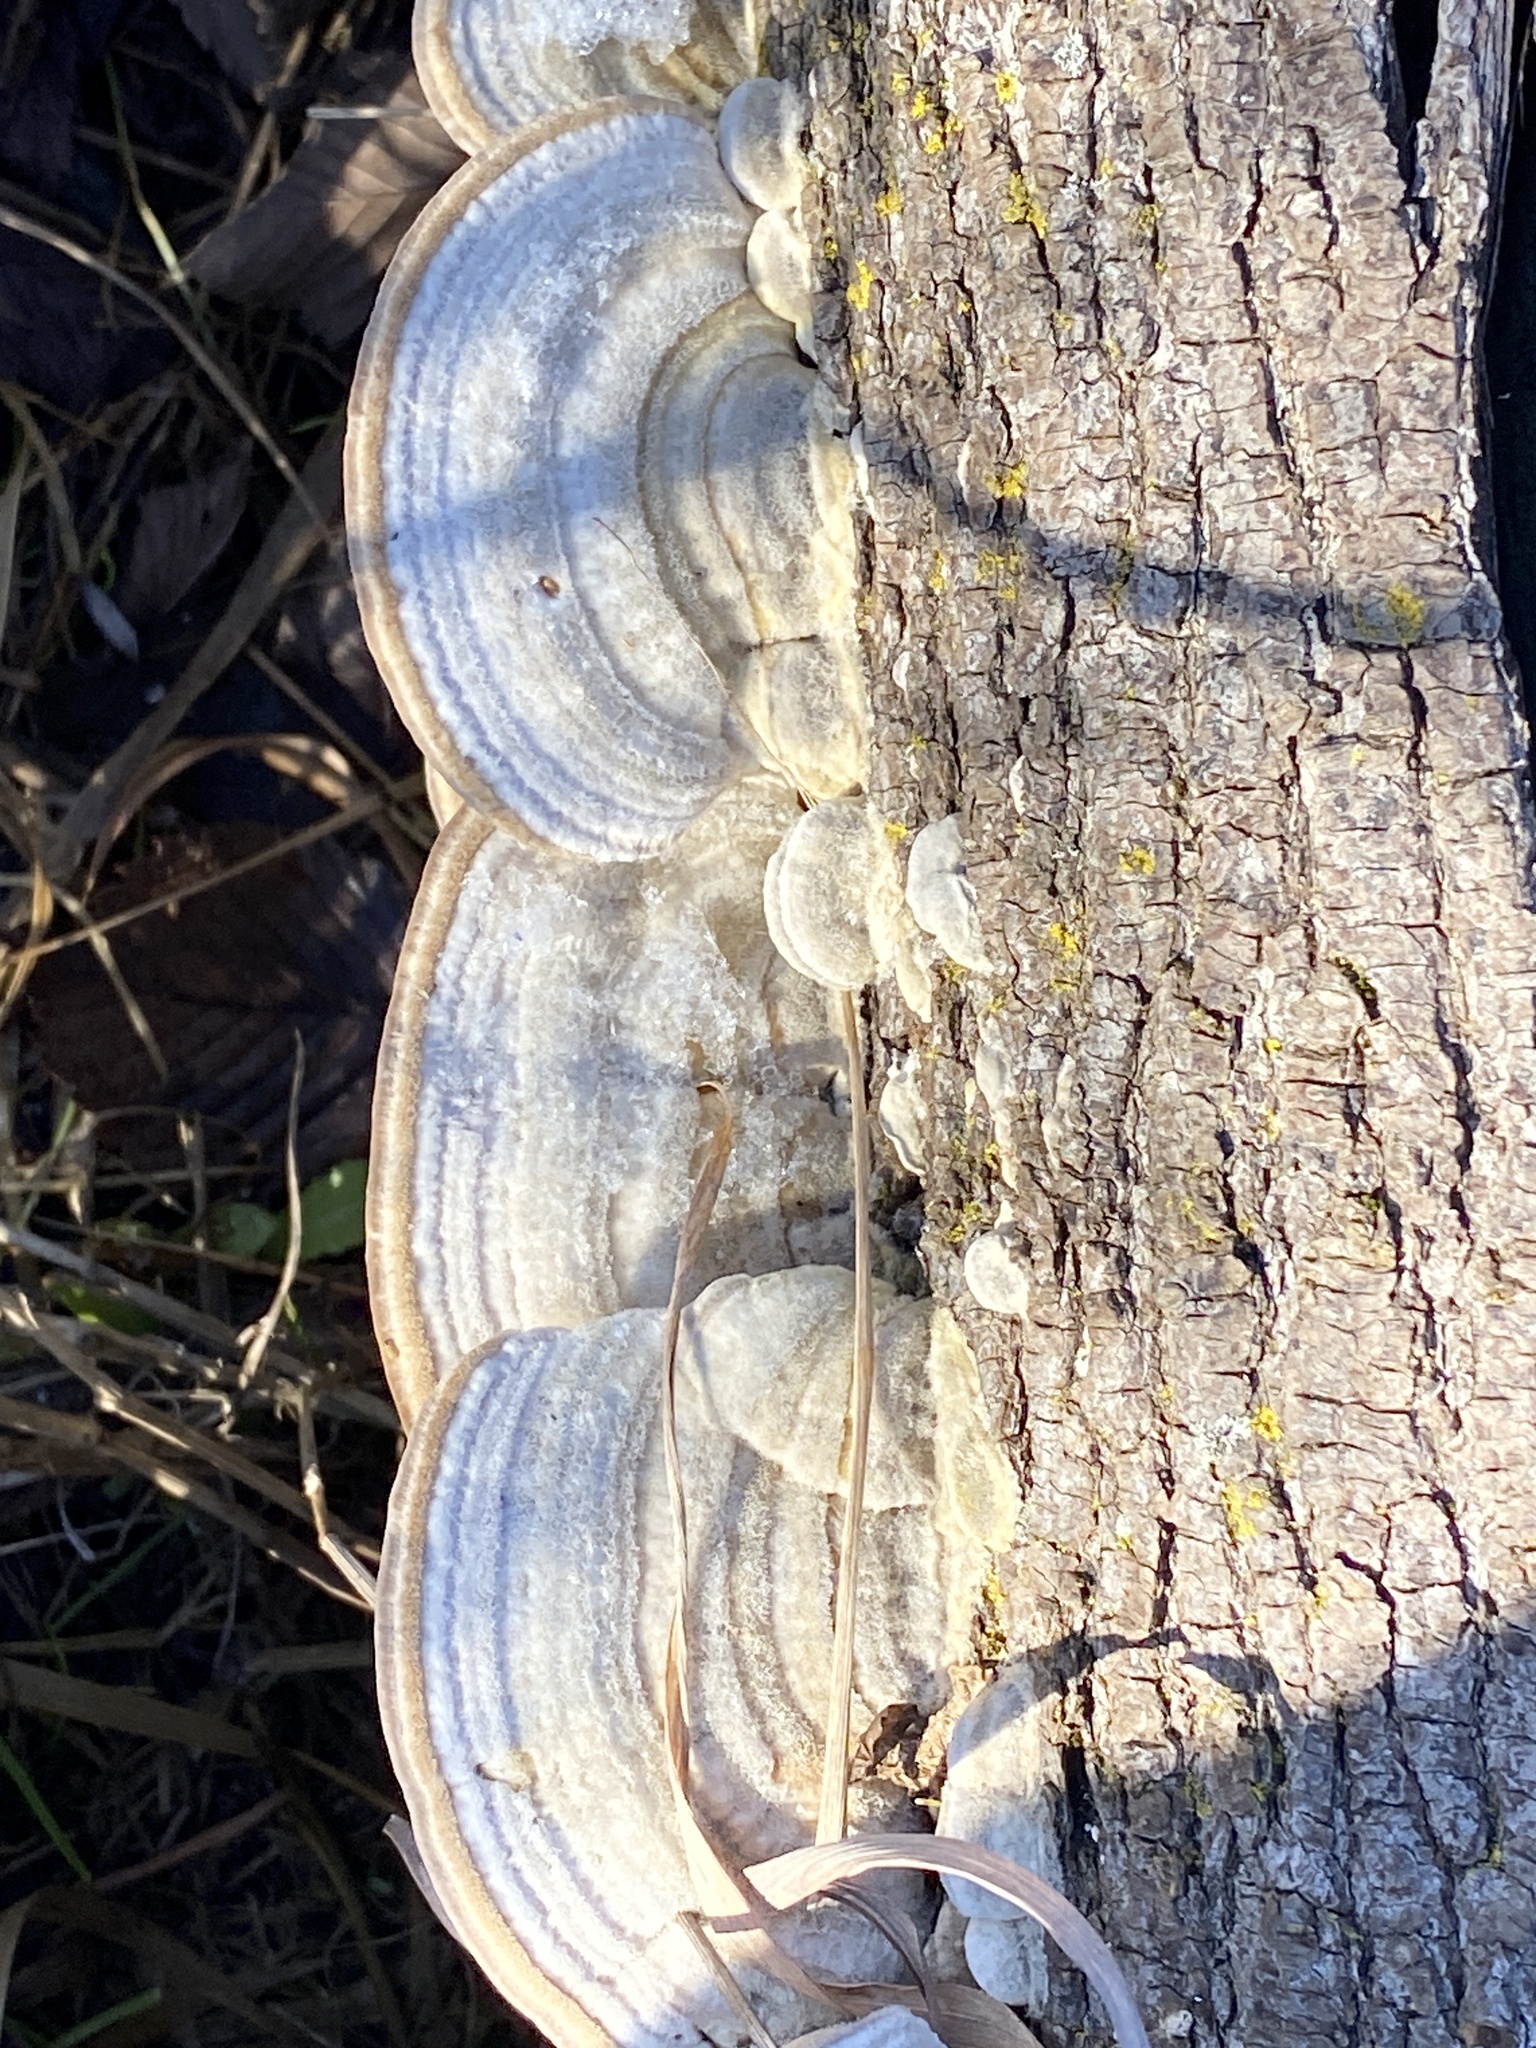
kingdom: Fungi
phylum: Basidiomycota
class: Agaricomycetes
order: Polyporales
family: Polyporaceae
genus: Trametes
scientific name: Trametes hirsuta
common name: Hairy bracket
